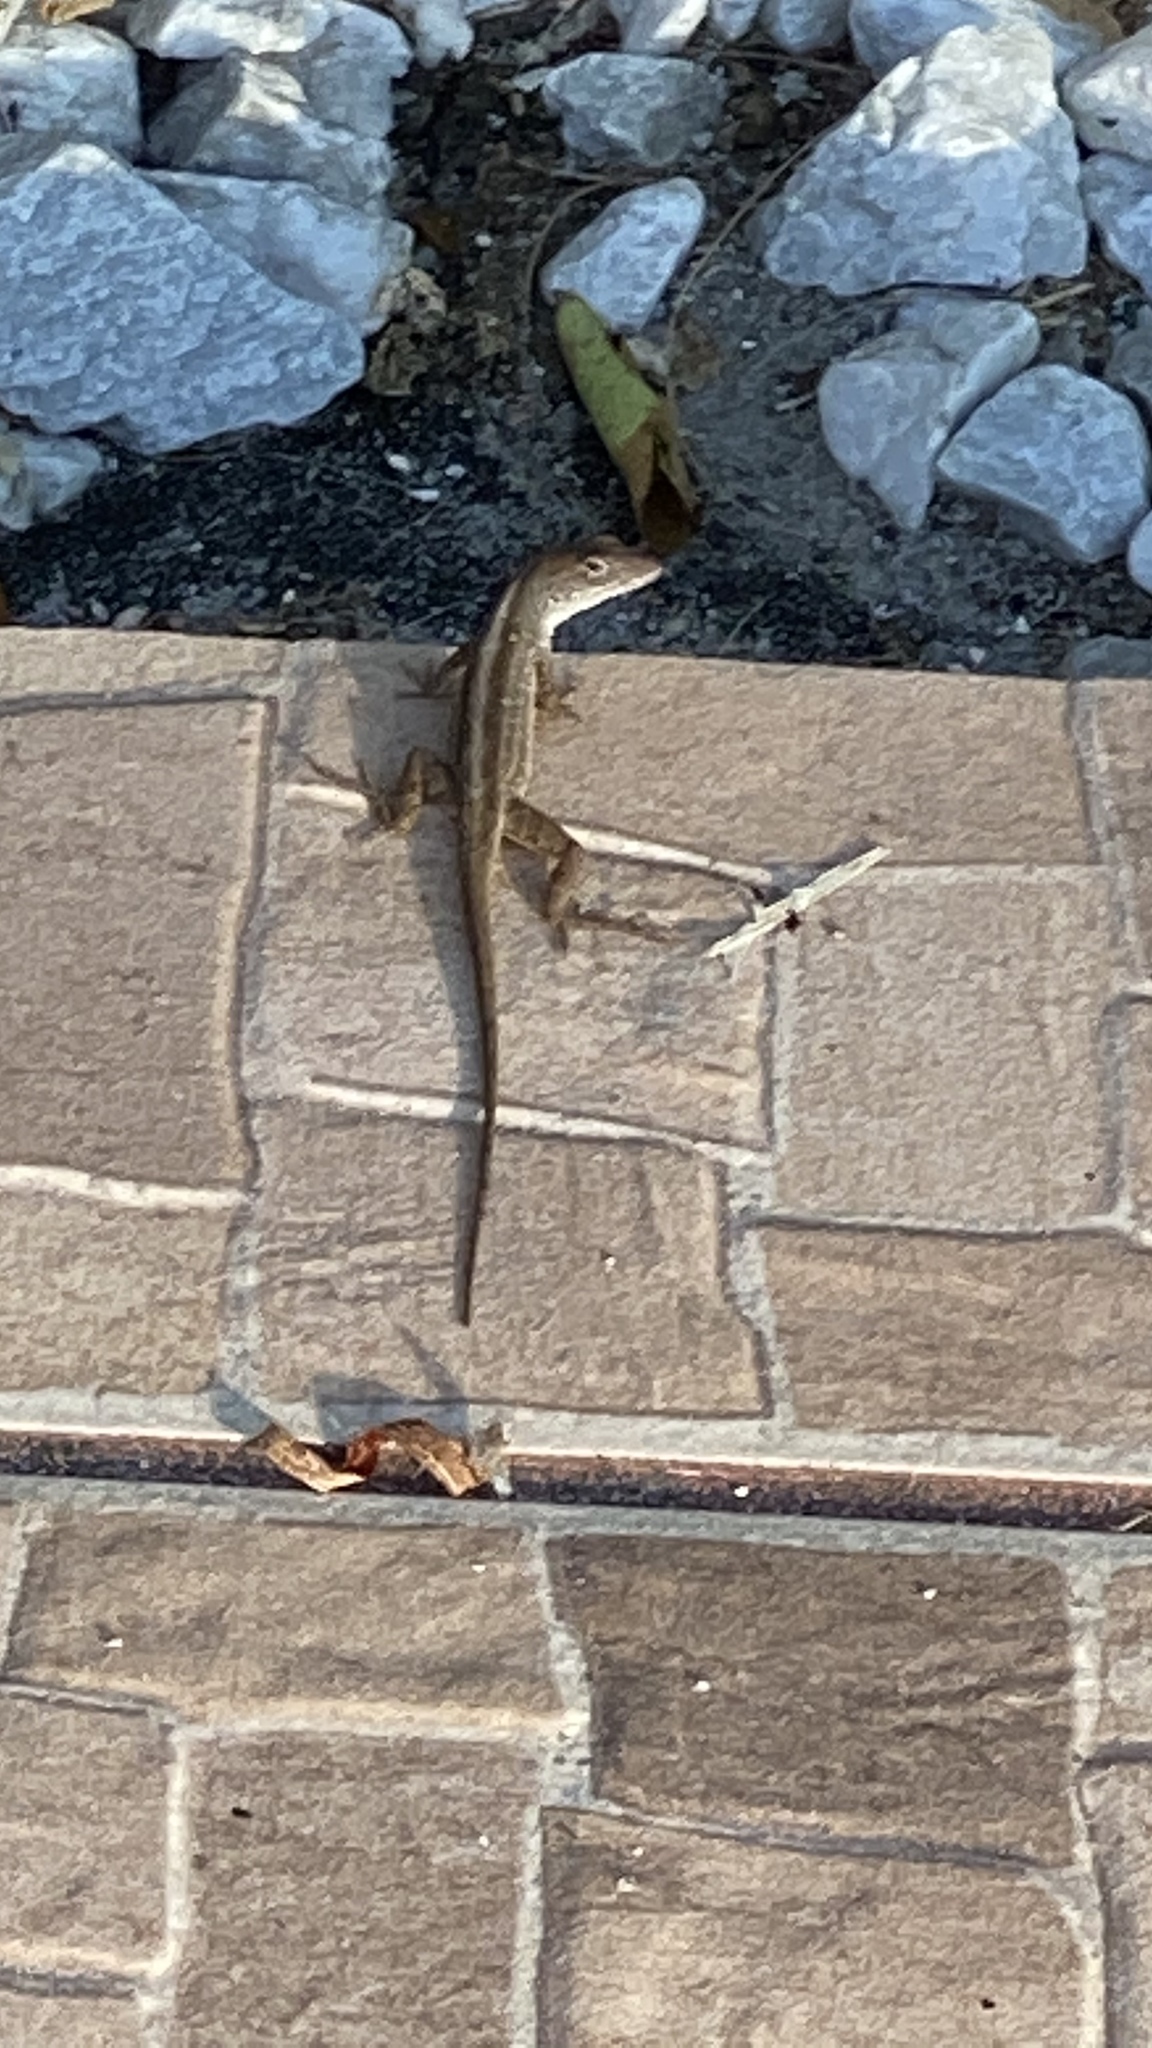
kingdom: Animalia
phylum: Chordata
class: Squamata
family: Dactyloidae
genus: Anolis
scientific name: Anolis sagrei
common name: Brown anole
